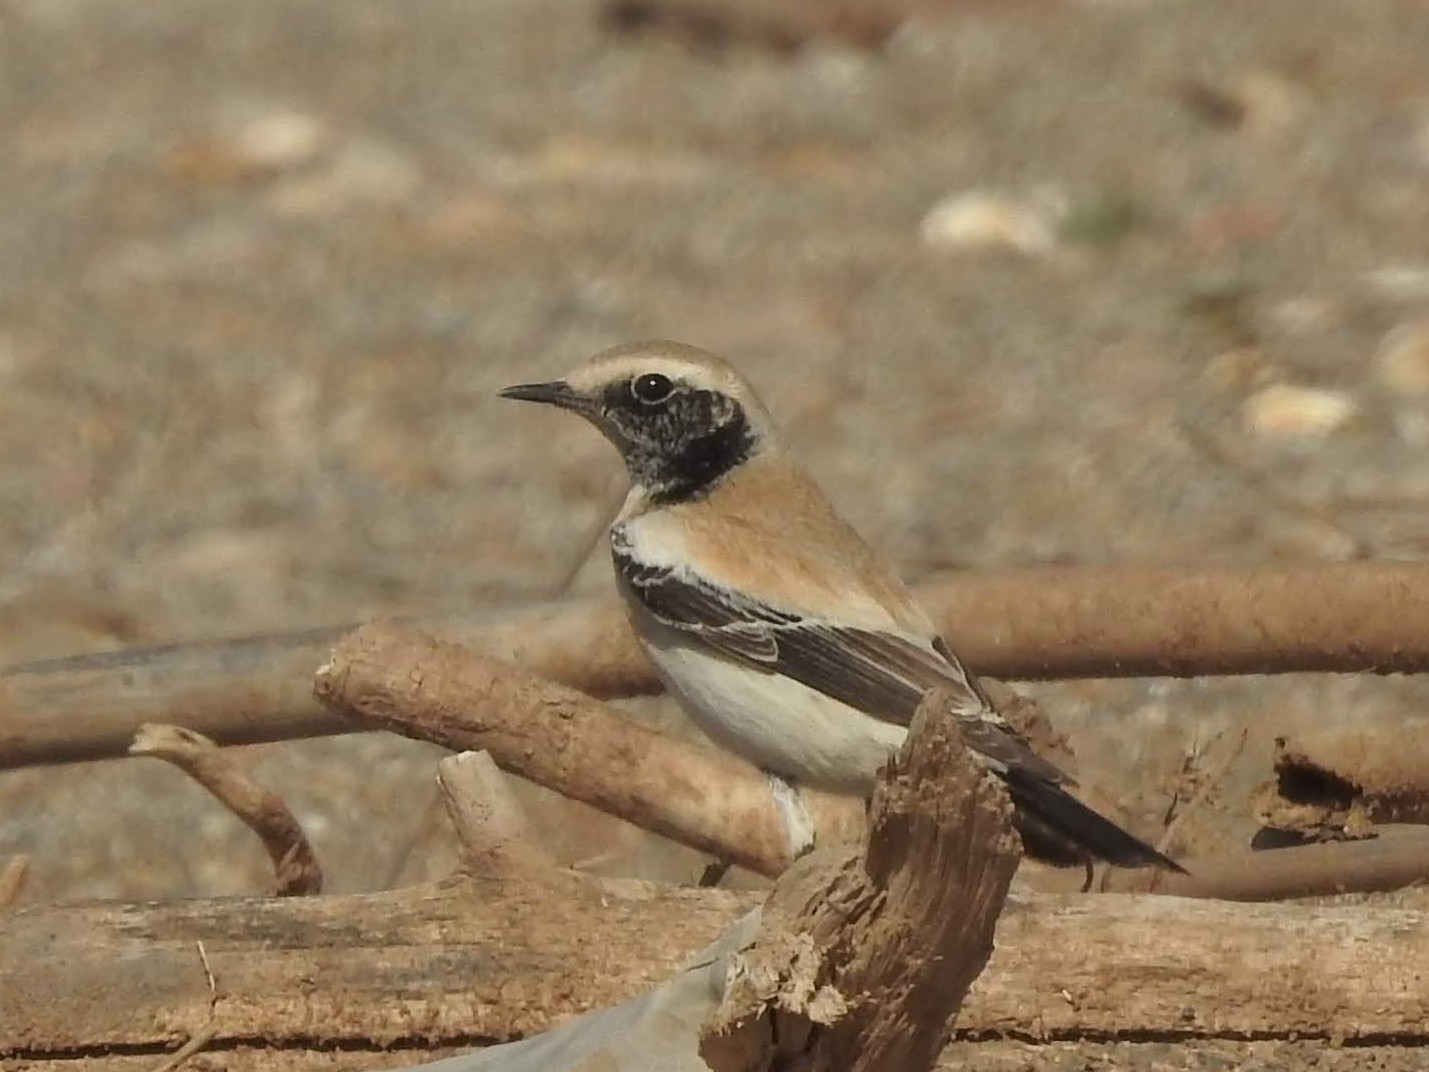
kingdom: Animalia
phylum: Chordata
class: Aves
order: Passeriformes
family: Muscicapidae
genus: Oenanthe
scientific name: Oenanthe deserti
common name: Desert wheatear
